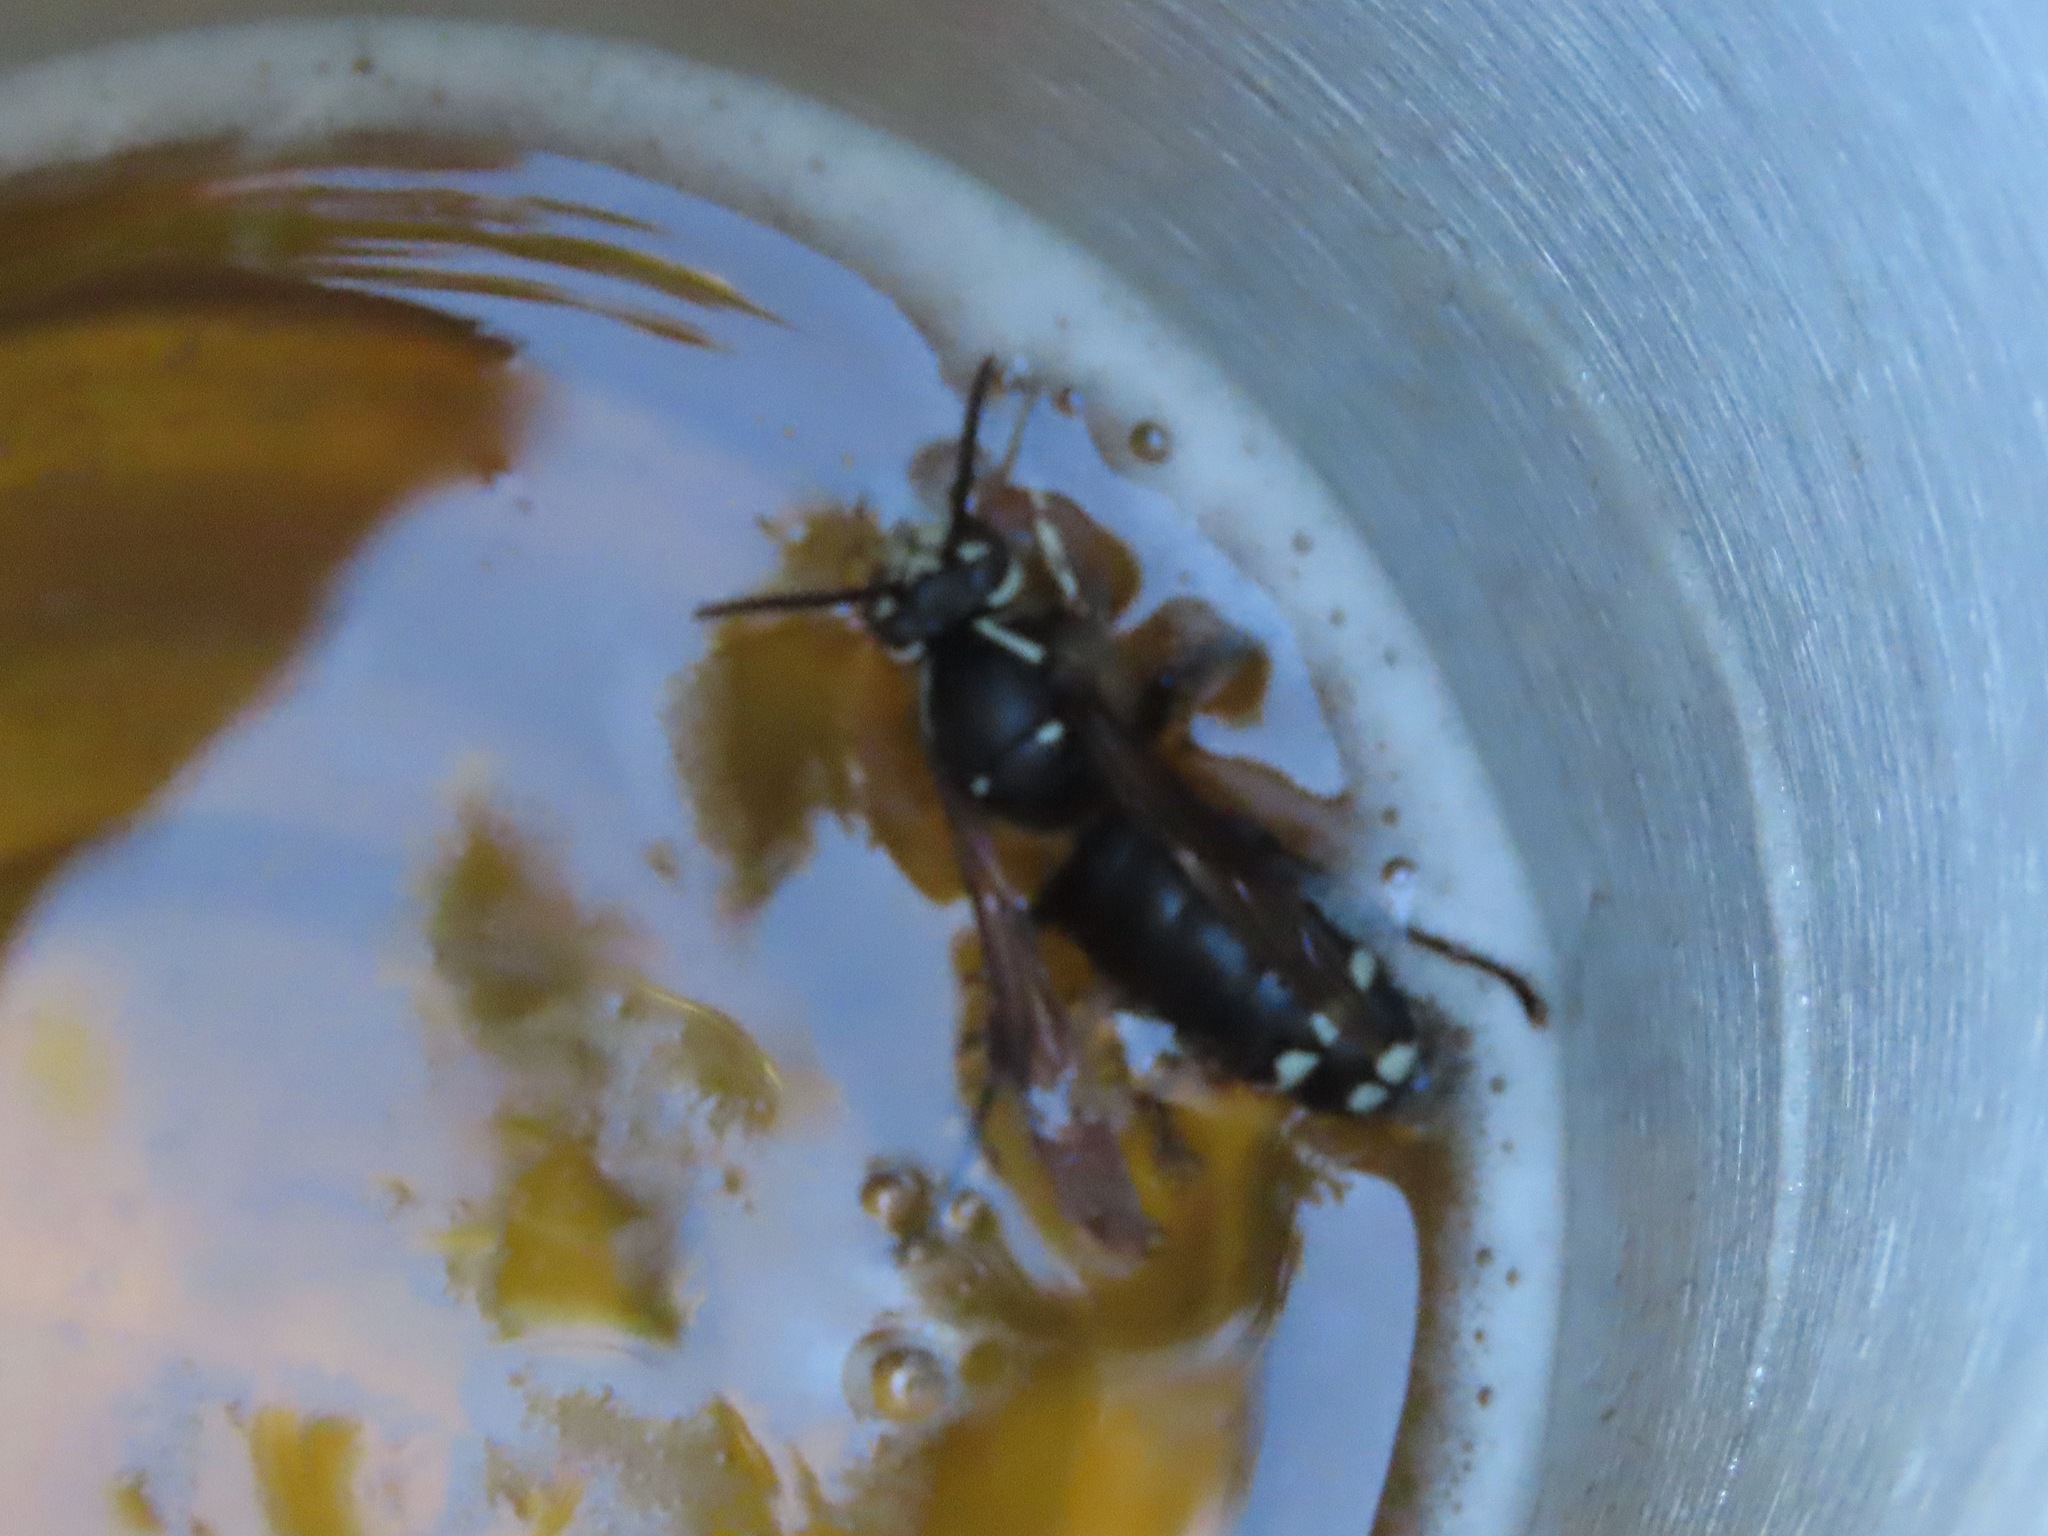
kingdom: Animalia
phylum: Arthropoda
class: Insecta
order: Hymenoptera
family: Vespidae
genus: Dolichovespula
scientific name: Dolichovespula maculata
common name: Bald-faced hornet
